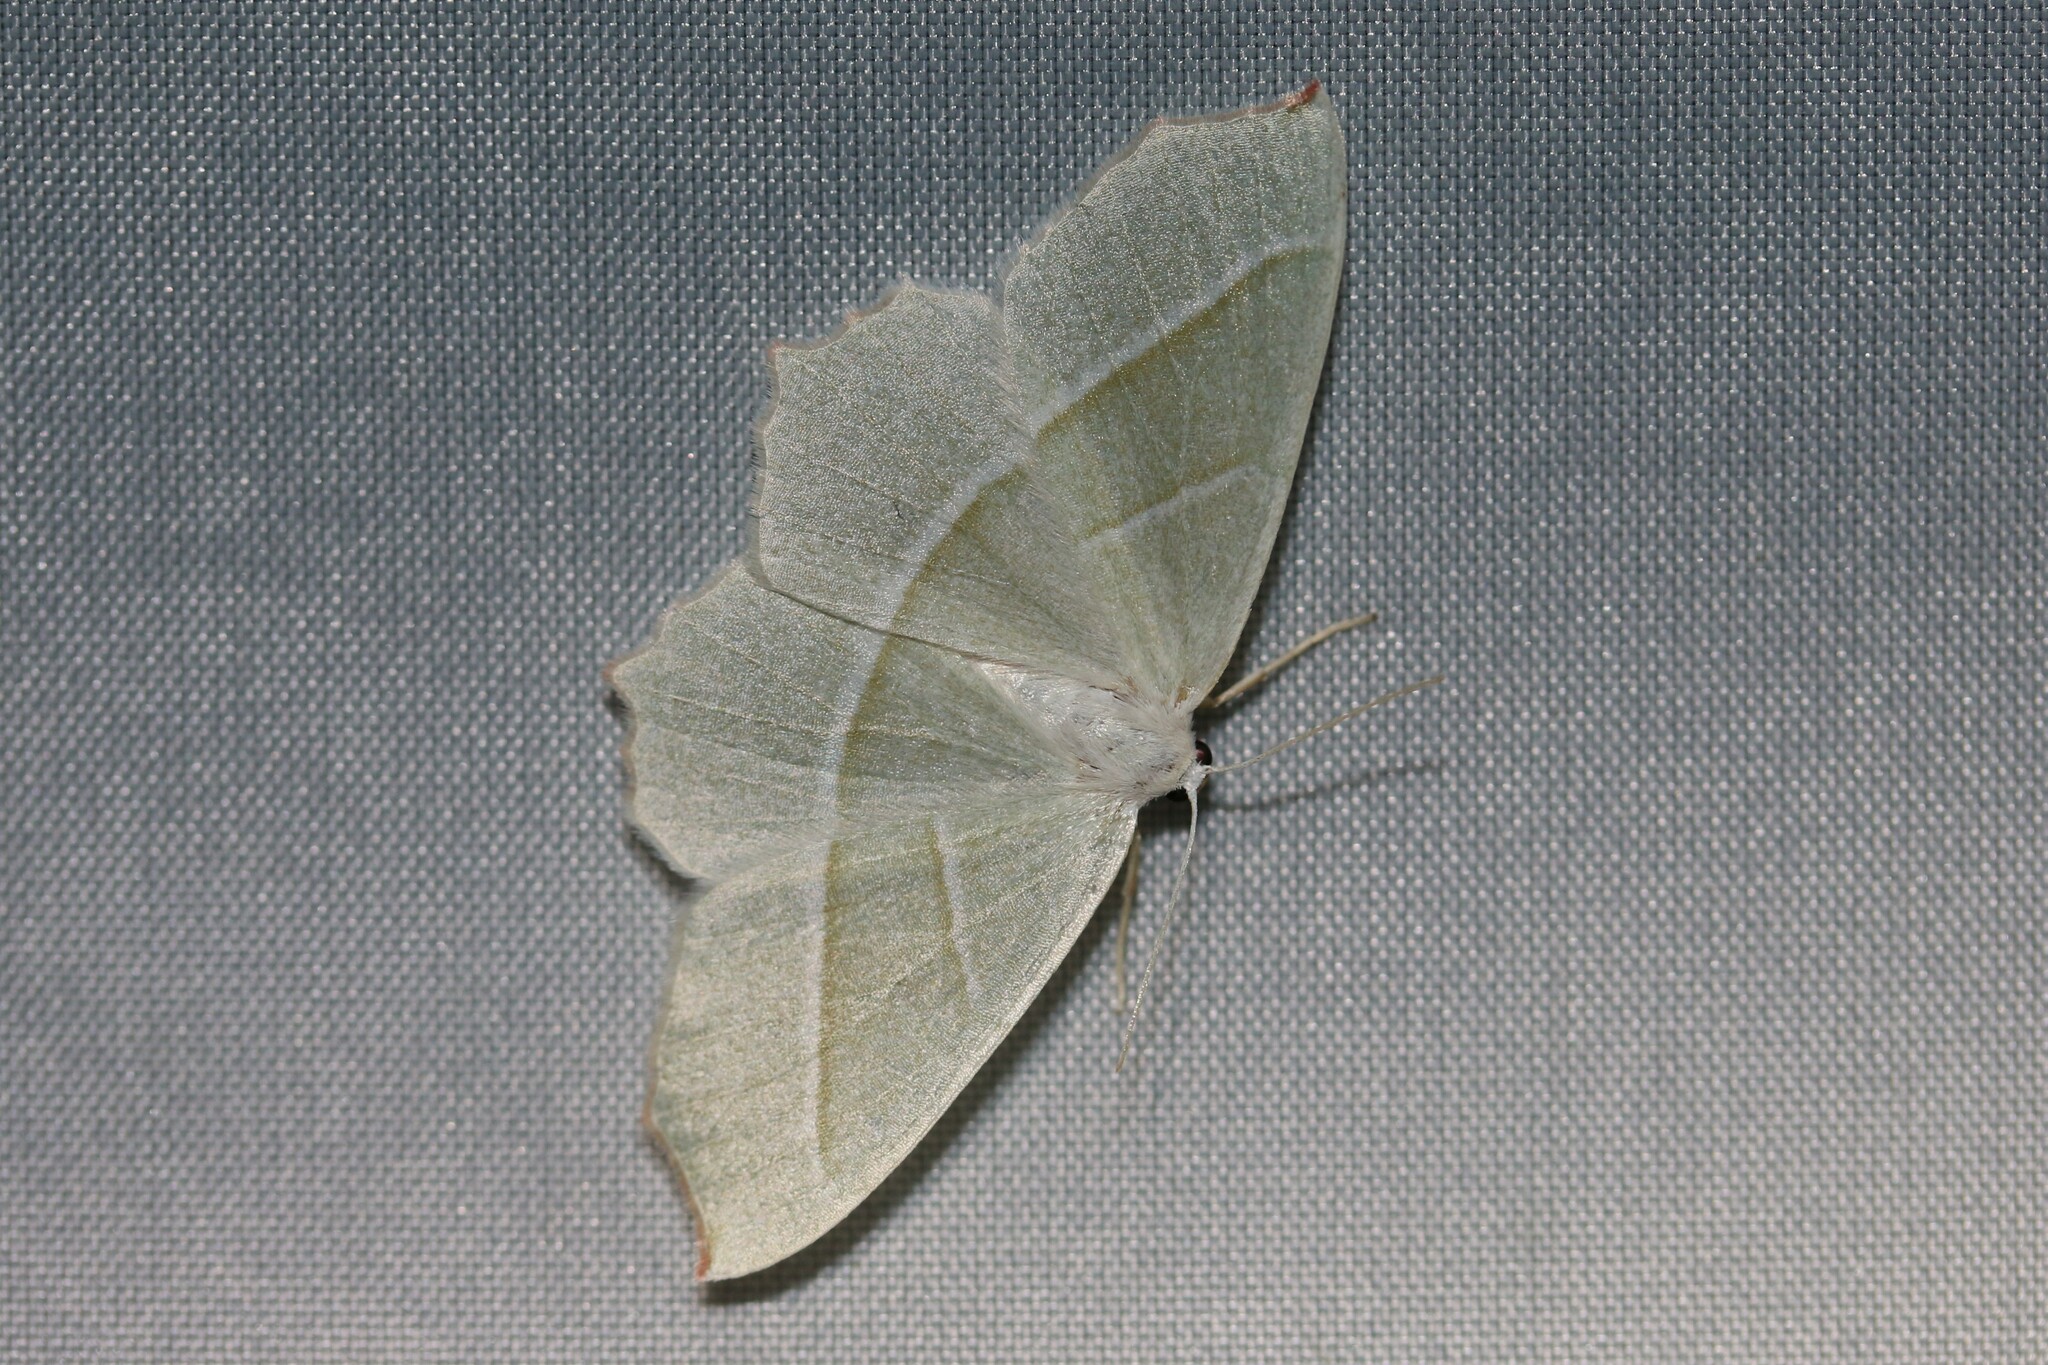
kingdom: Animalia
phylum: Arthropoda
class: Insecta
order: Lepidoptera
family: Geometridae
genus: Campaea
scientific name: Campaea margaritaria
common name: Light emerald
